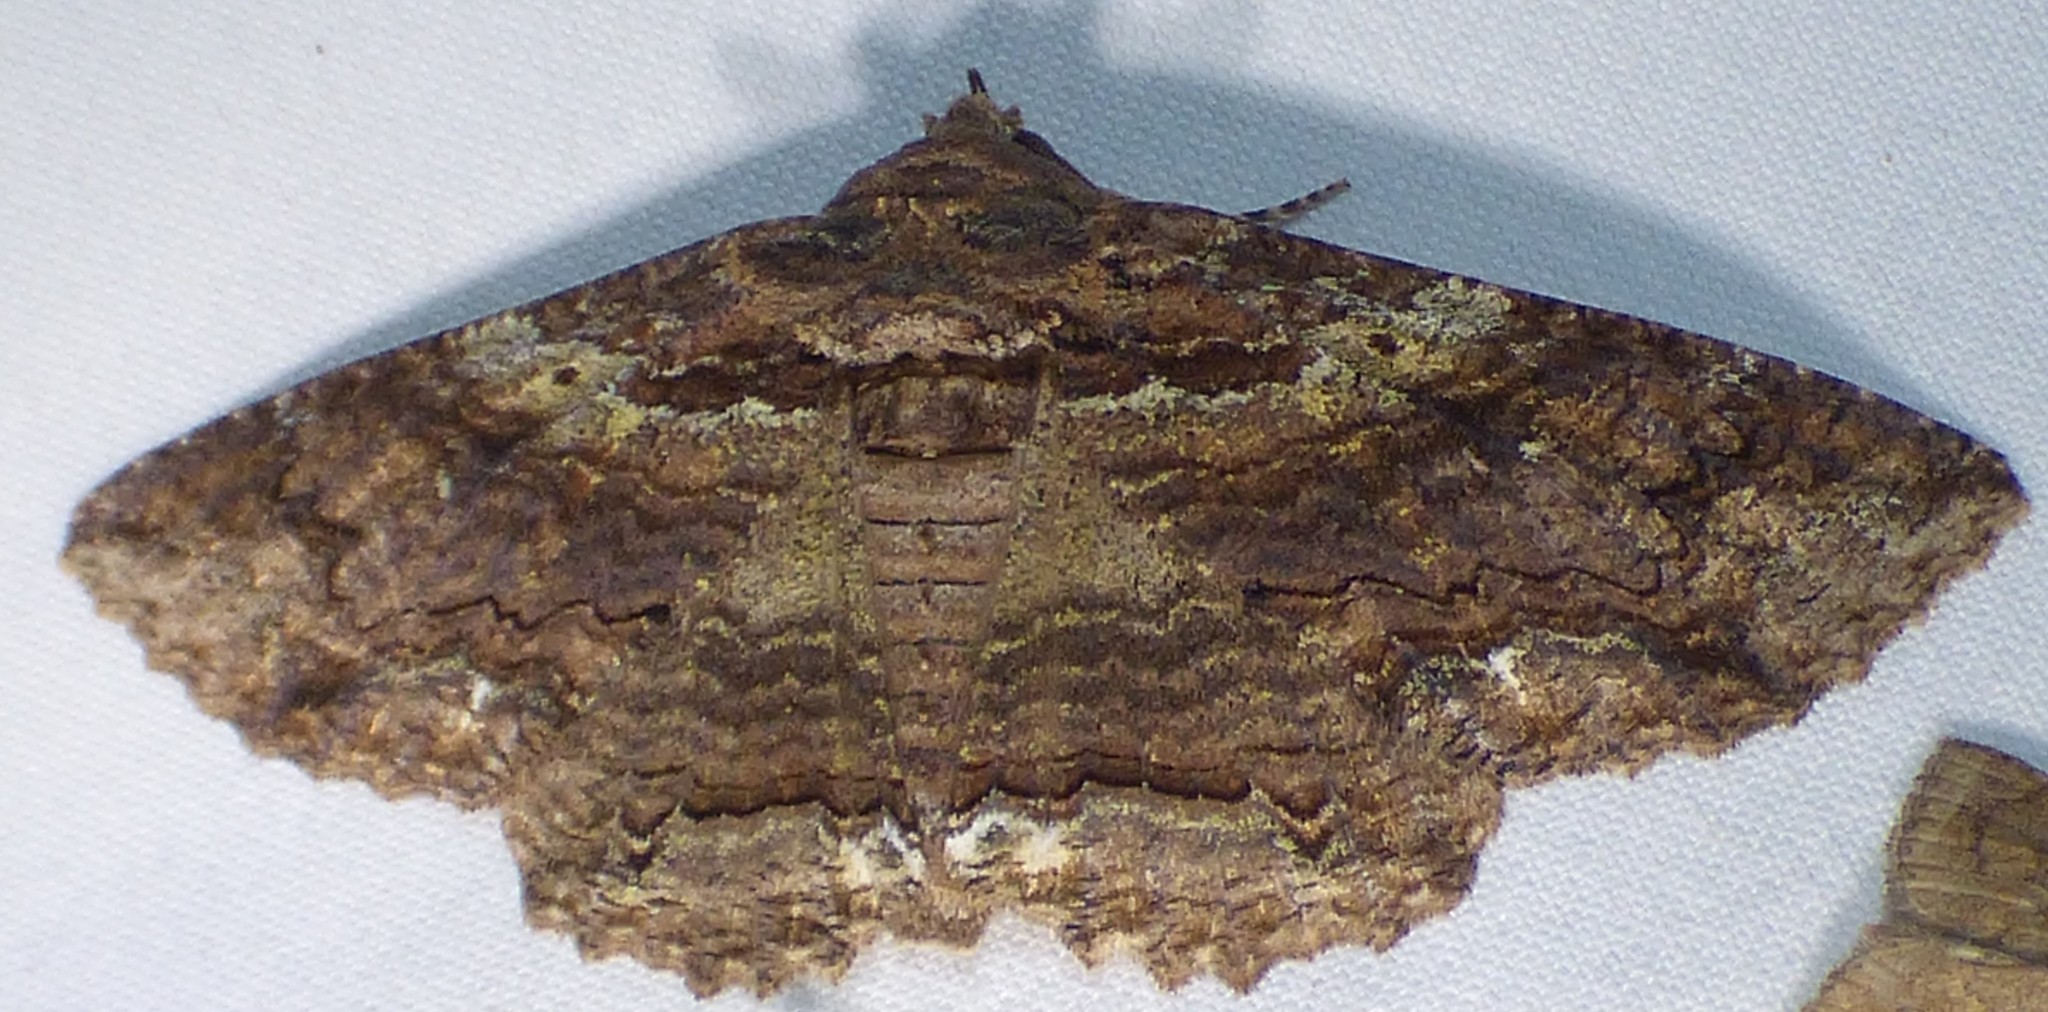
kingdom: Animalia
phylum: Arthropoda
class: Insecta
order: Lepidoptera
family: Erebidae
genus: Zale
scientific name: Zale lunata
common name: Lunate zale moth
